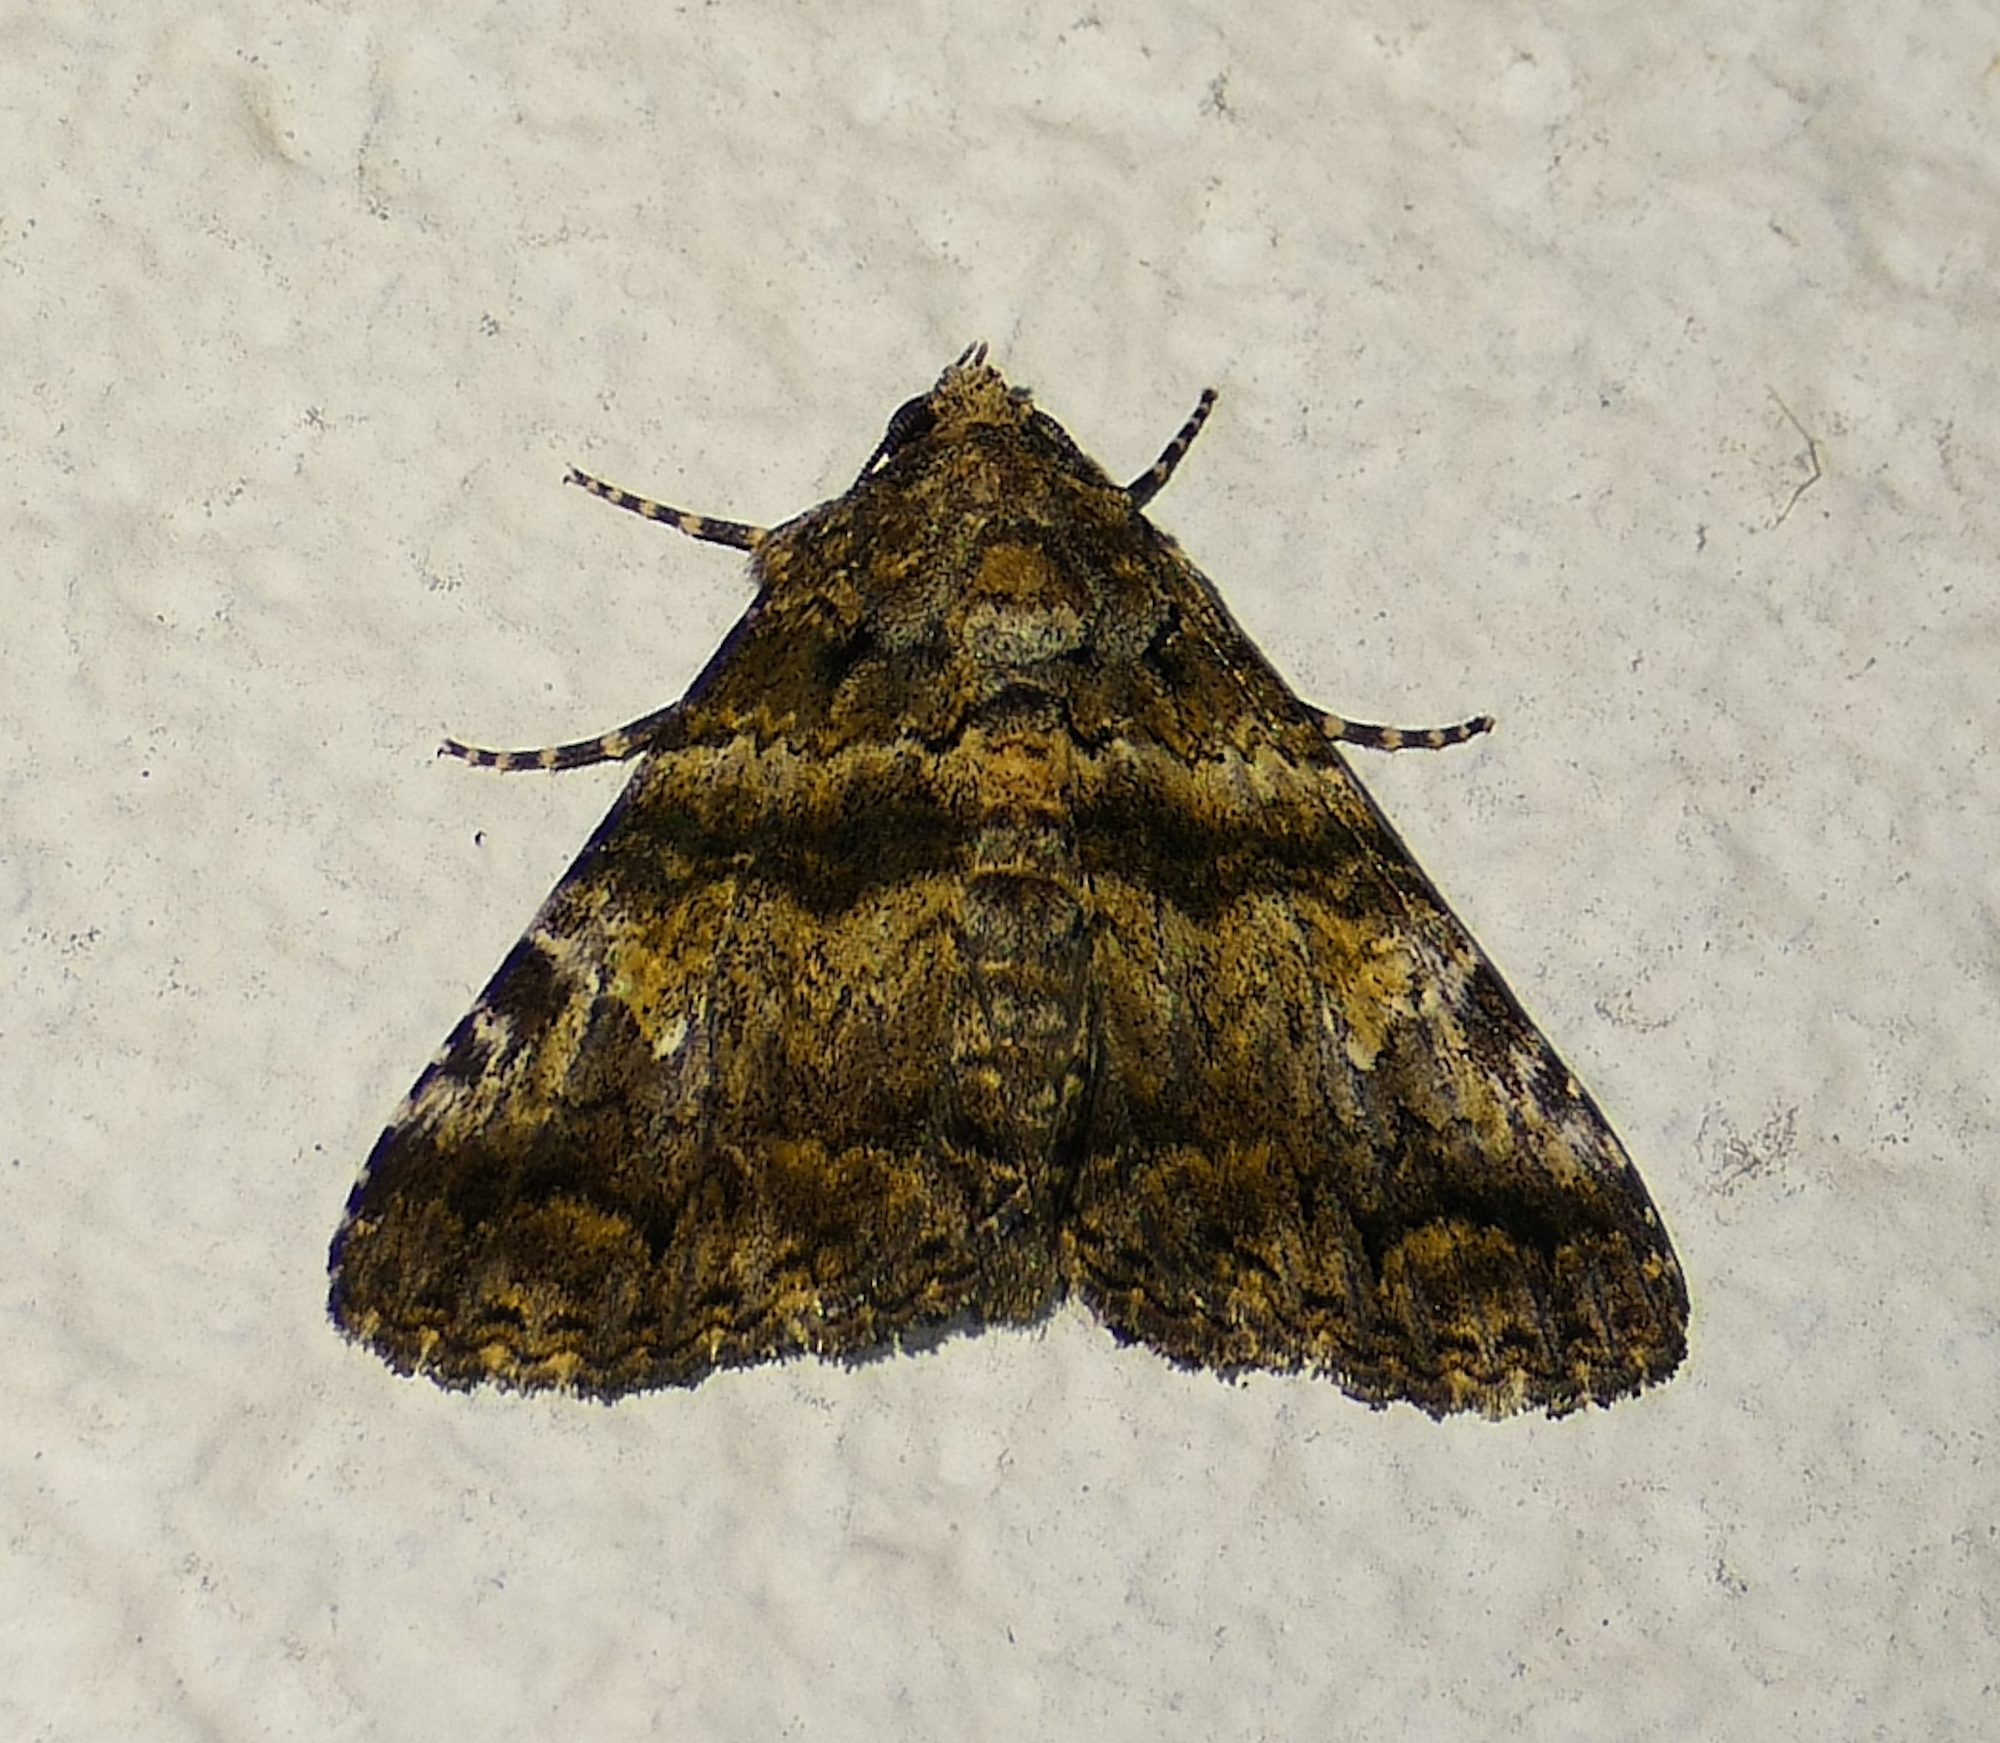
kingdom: Animalia
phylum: Arthropoda
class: Insecta
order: Lepidoptera
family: Erebidae
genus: Metria
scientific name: Metria amella
